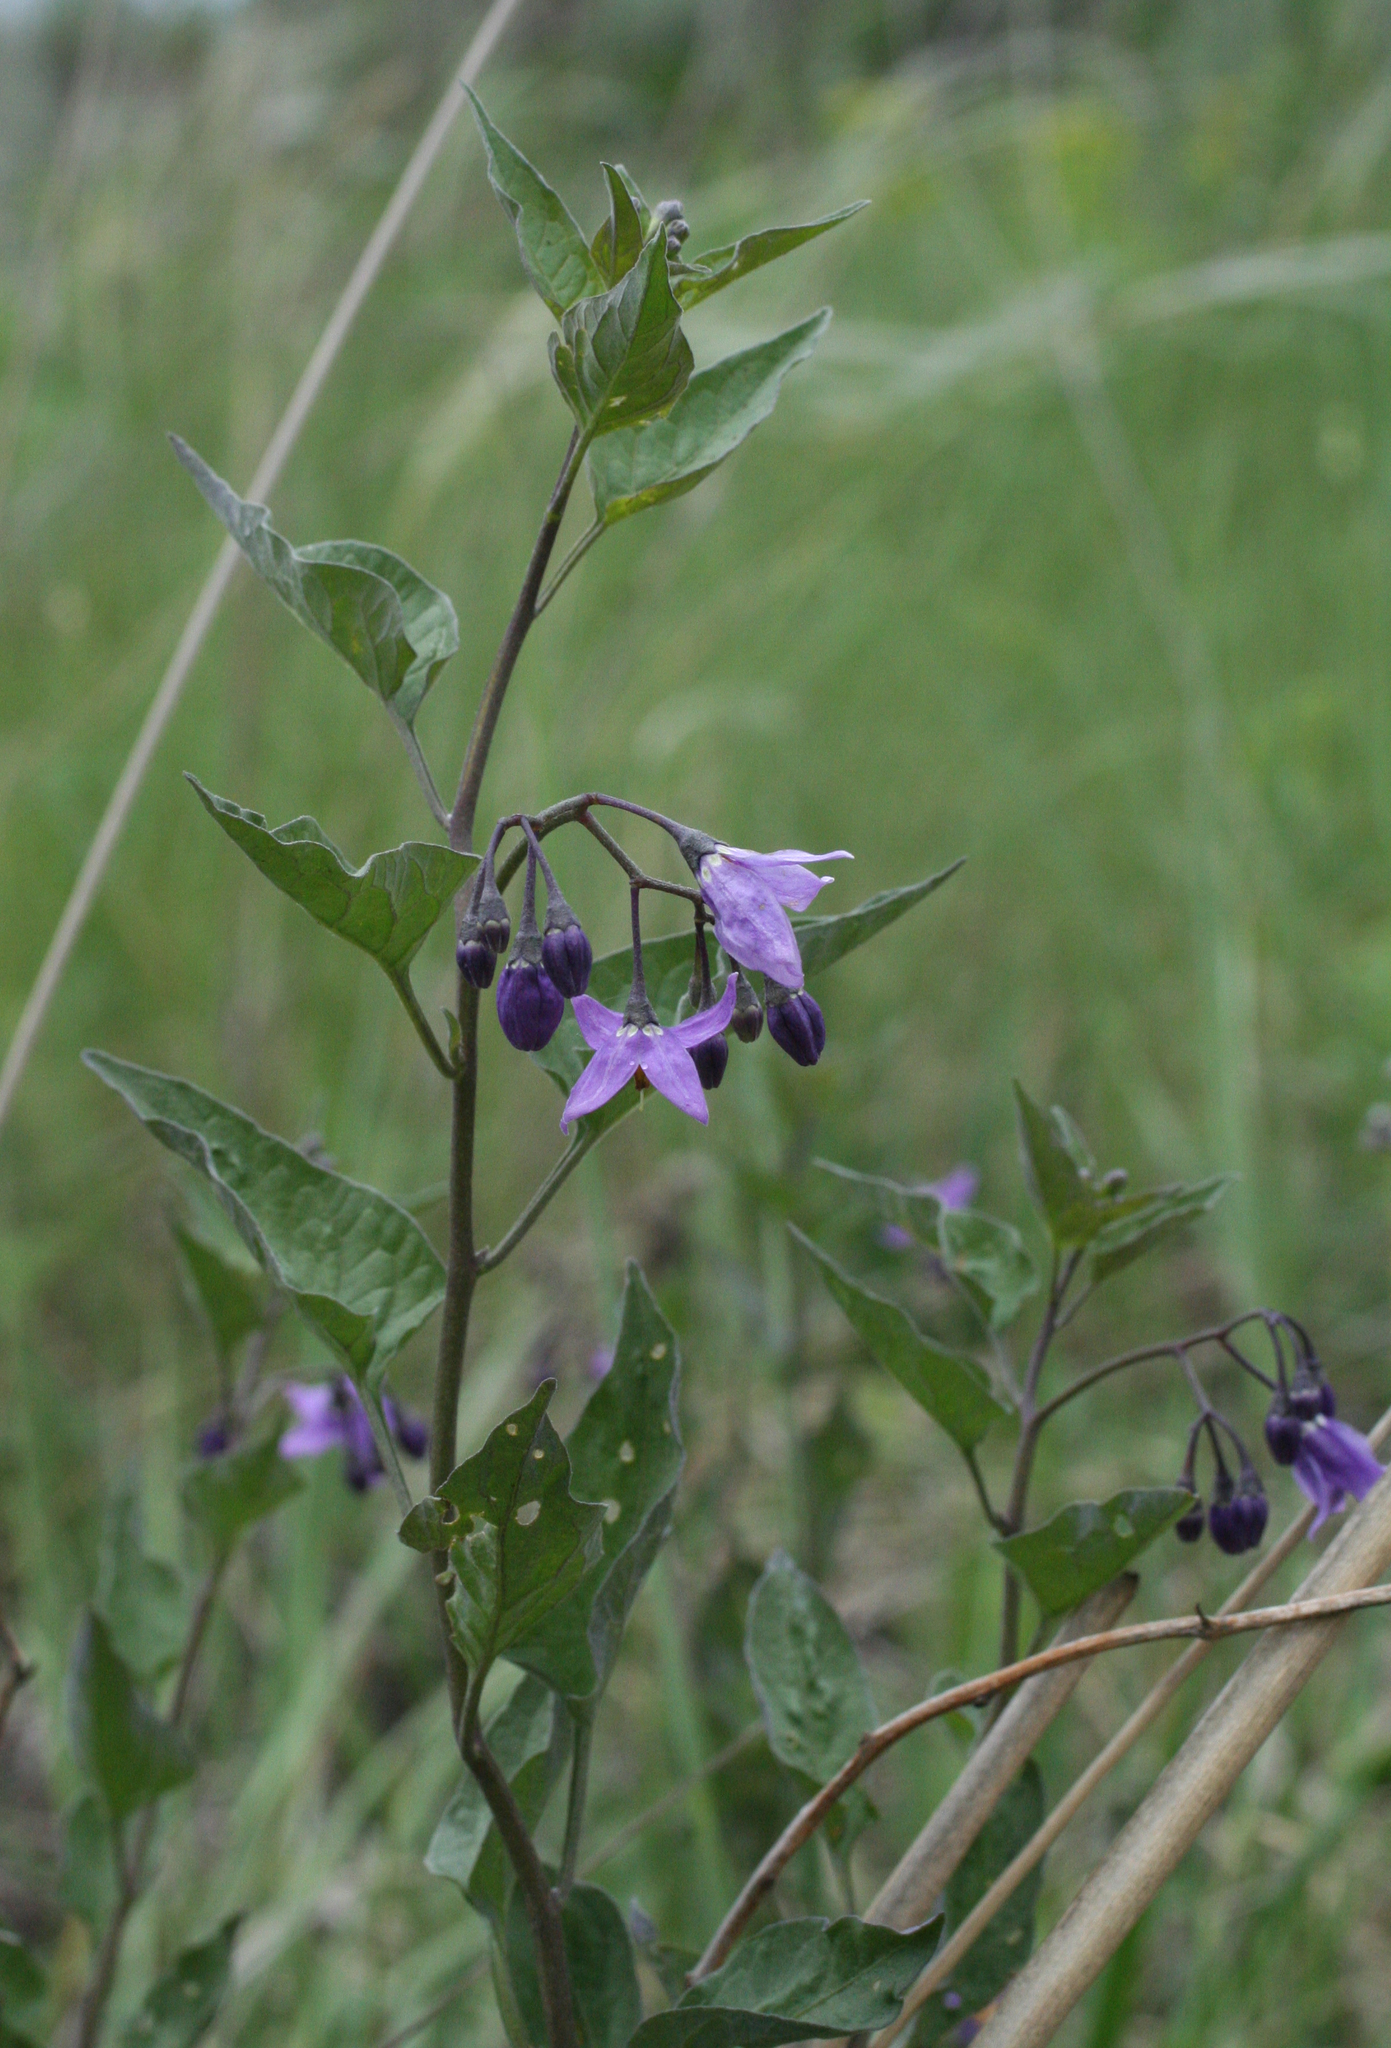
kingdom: Plantae
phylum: Tracheophyta
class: Magnoliopsida
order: Solanales
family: Solanaceae
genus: Solanum
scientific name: Solanum dulcamara
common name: Climbing nightshade
